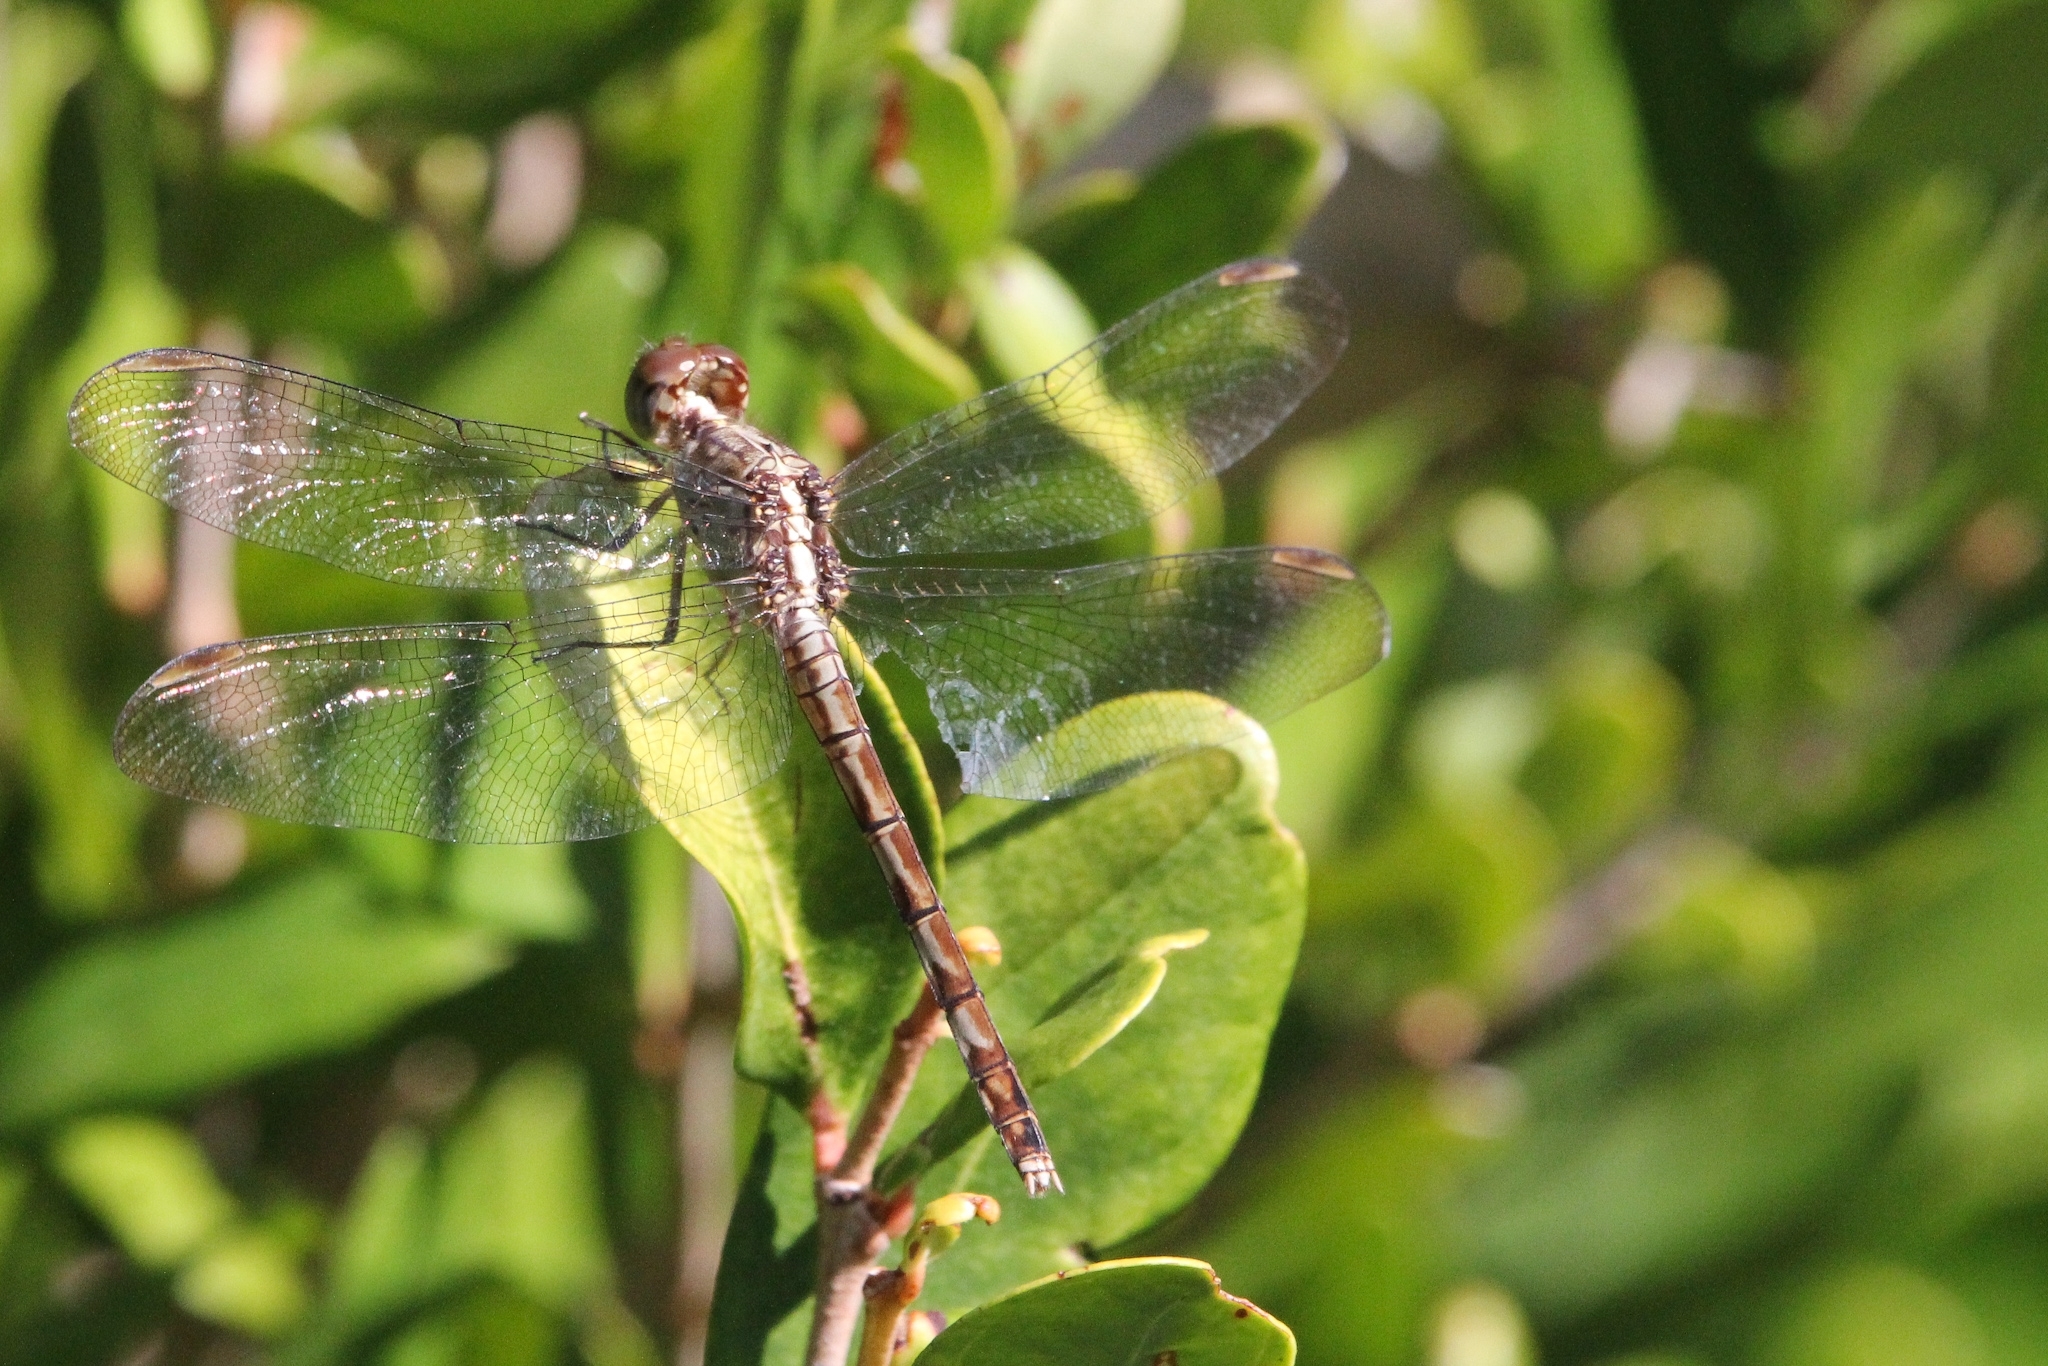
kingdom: Animalia
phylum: Arthropoda
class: Insecta
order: Odonata
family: Libellulidae
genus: Erythrodiplax
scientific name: Erythrodiplax umbrata
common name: Band-winged dragonlet
